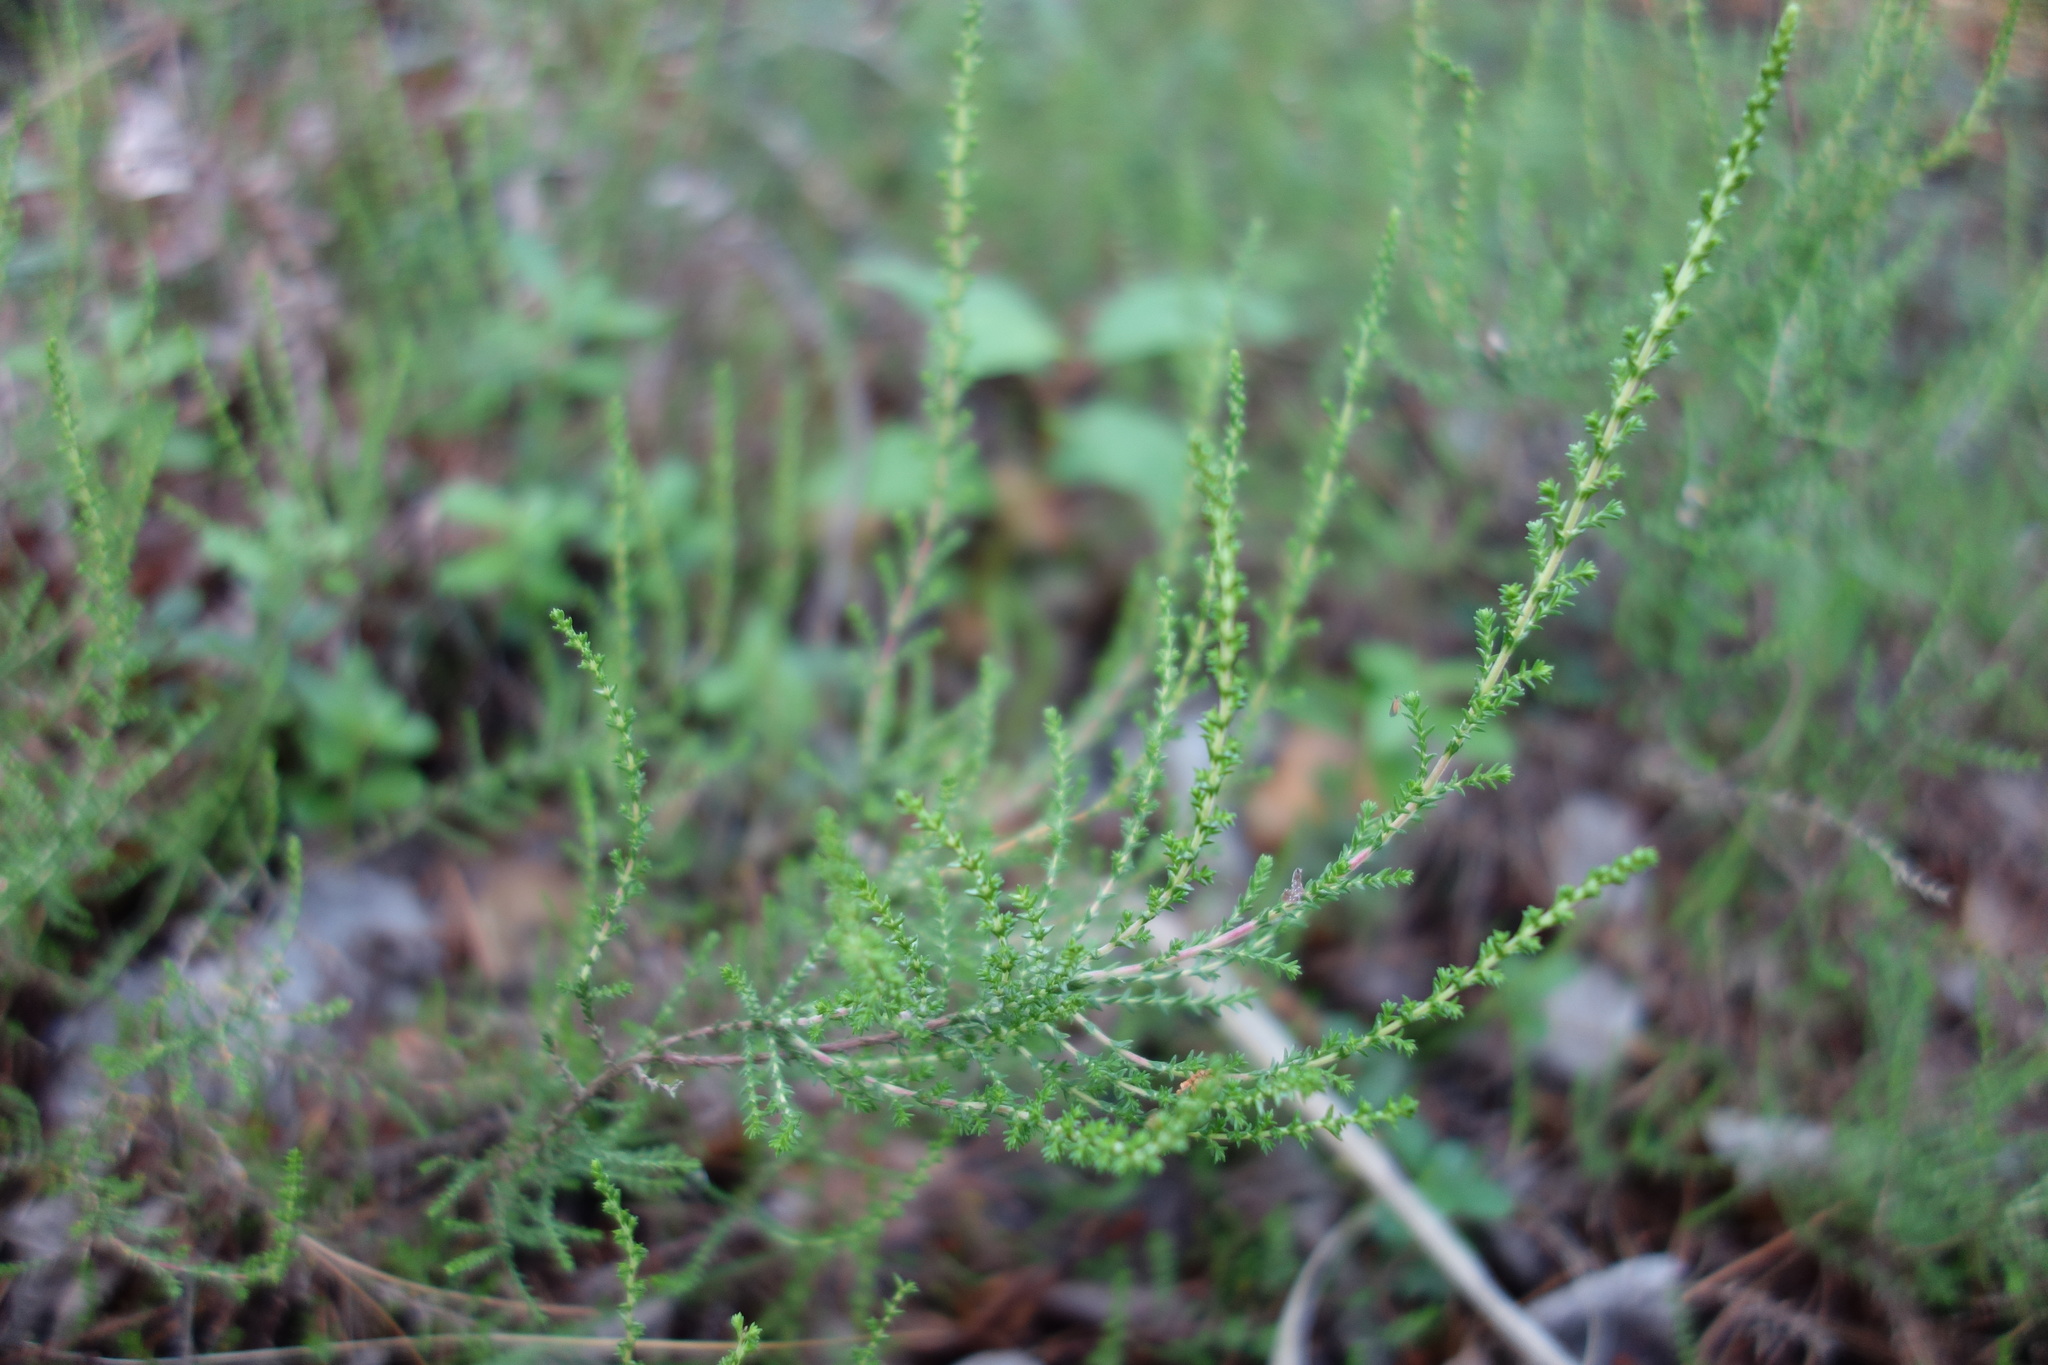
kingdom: Plantae
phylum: Tracheophyta
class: Magnoliopsida
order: Ericales
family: Ericaceae
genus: Calluna
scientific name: Calluna vulgaris
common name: Heather
